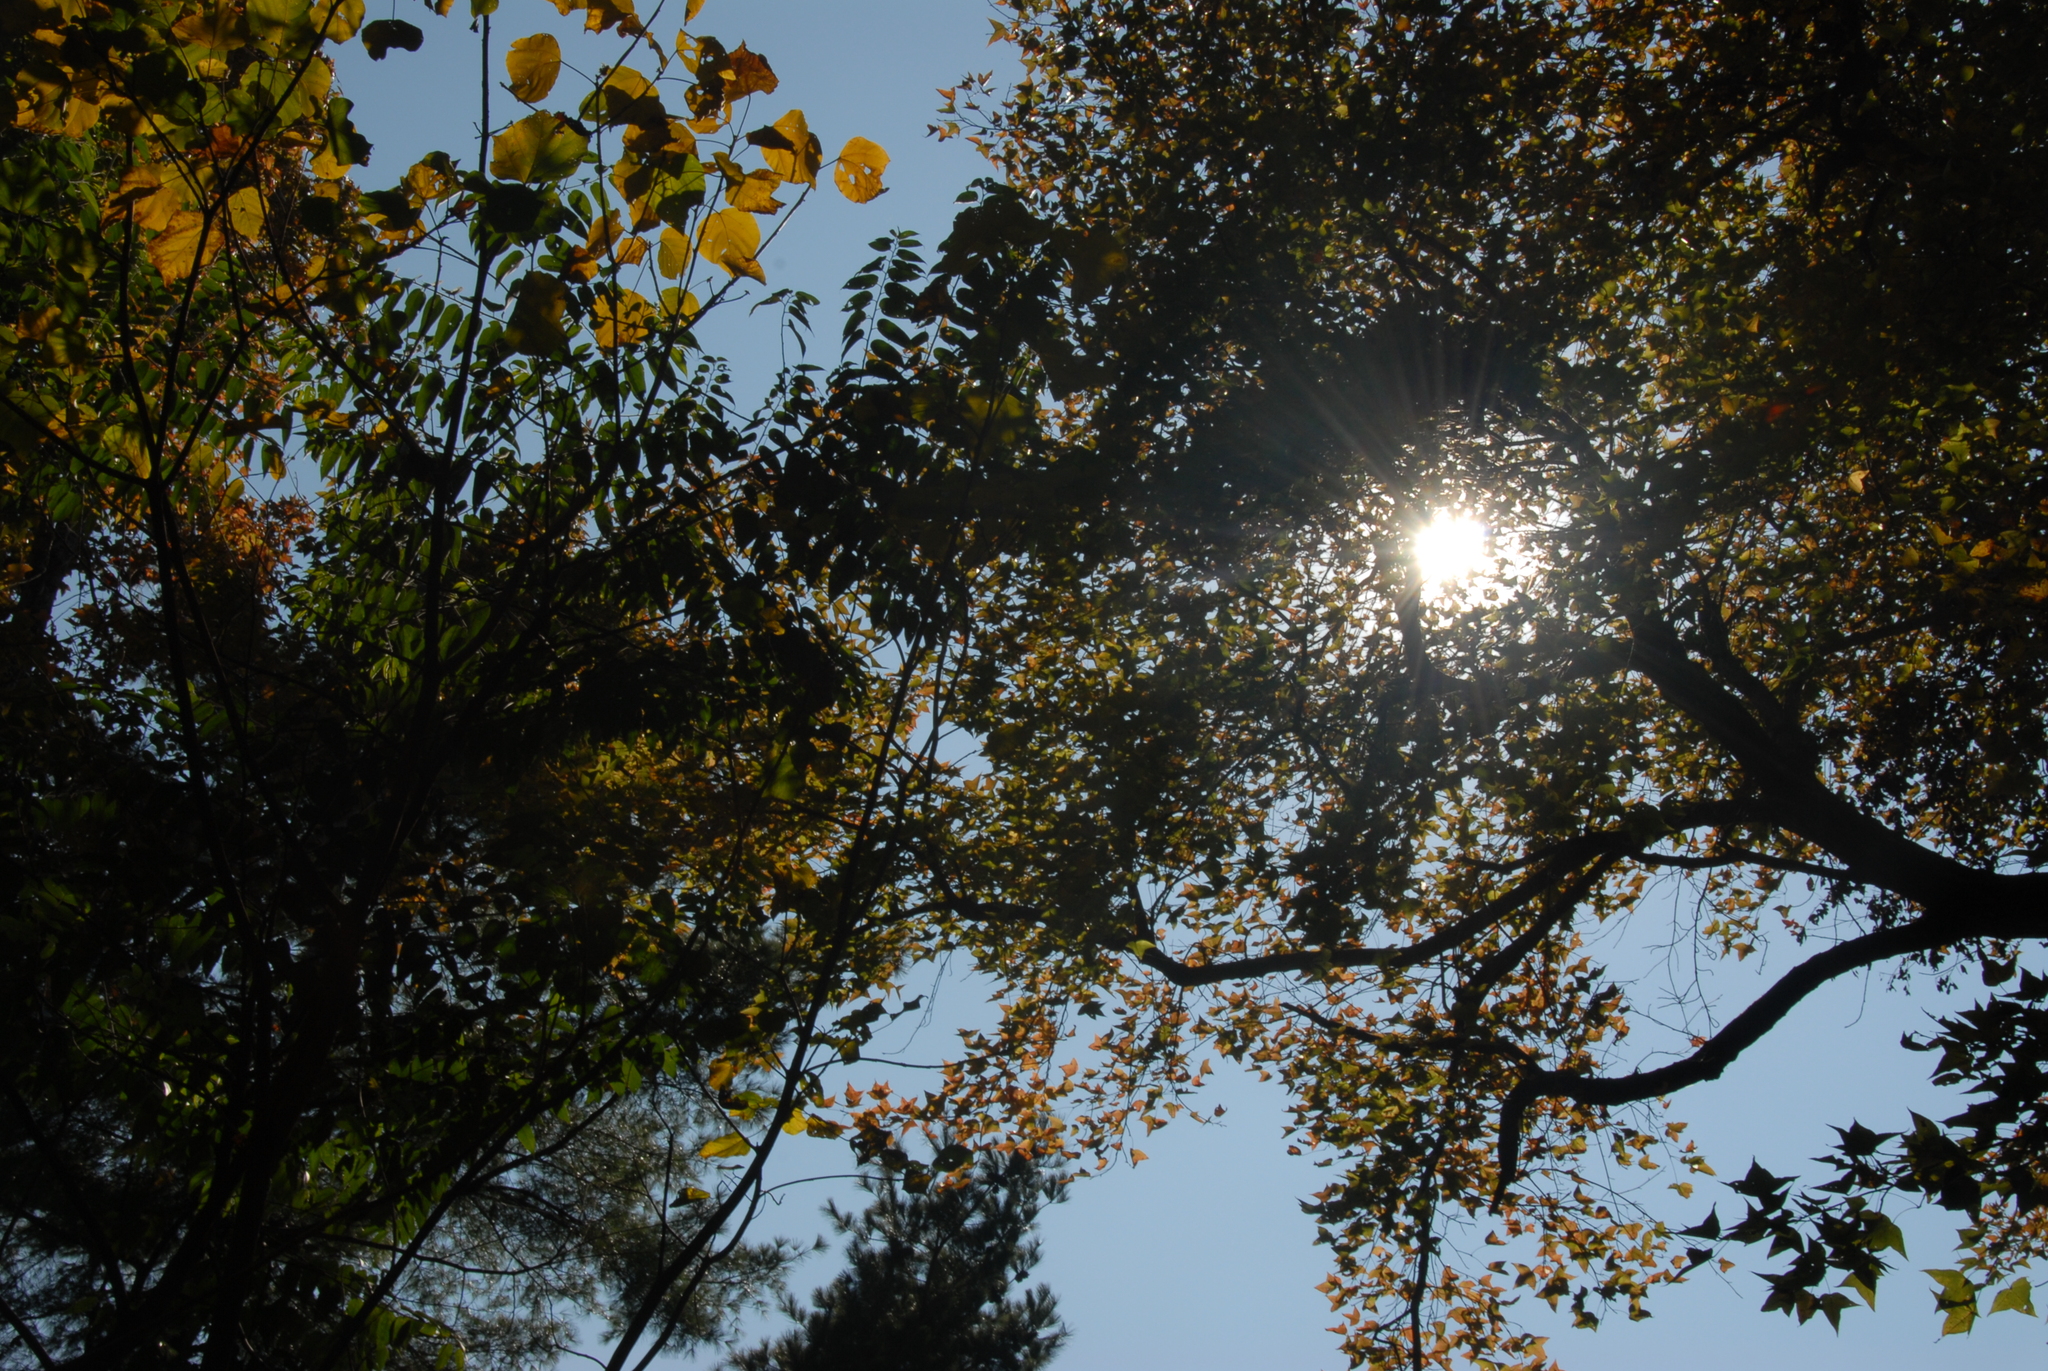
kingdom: Plantae
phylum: Tracheophyta
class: Magnoliopsida
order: Saxifragales
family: Altingiaceae
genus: Liquidambar
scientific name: Liquidambar formosana
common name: Chinese sweet gum
